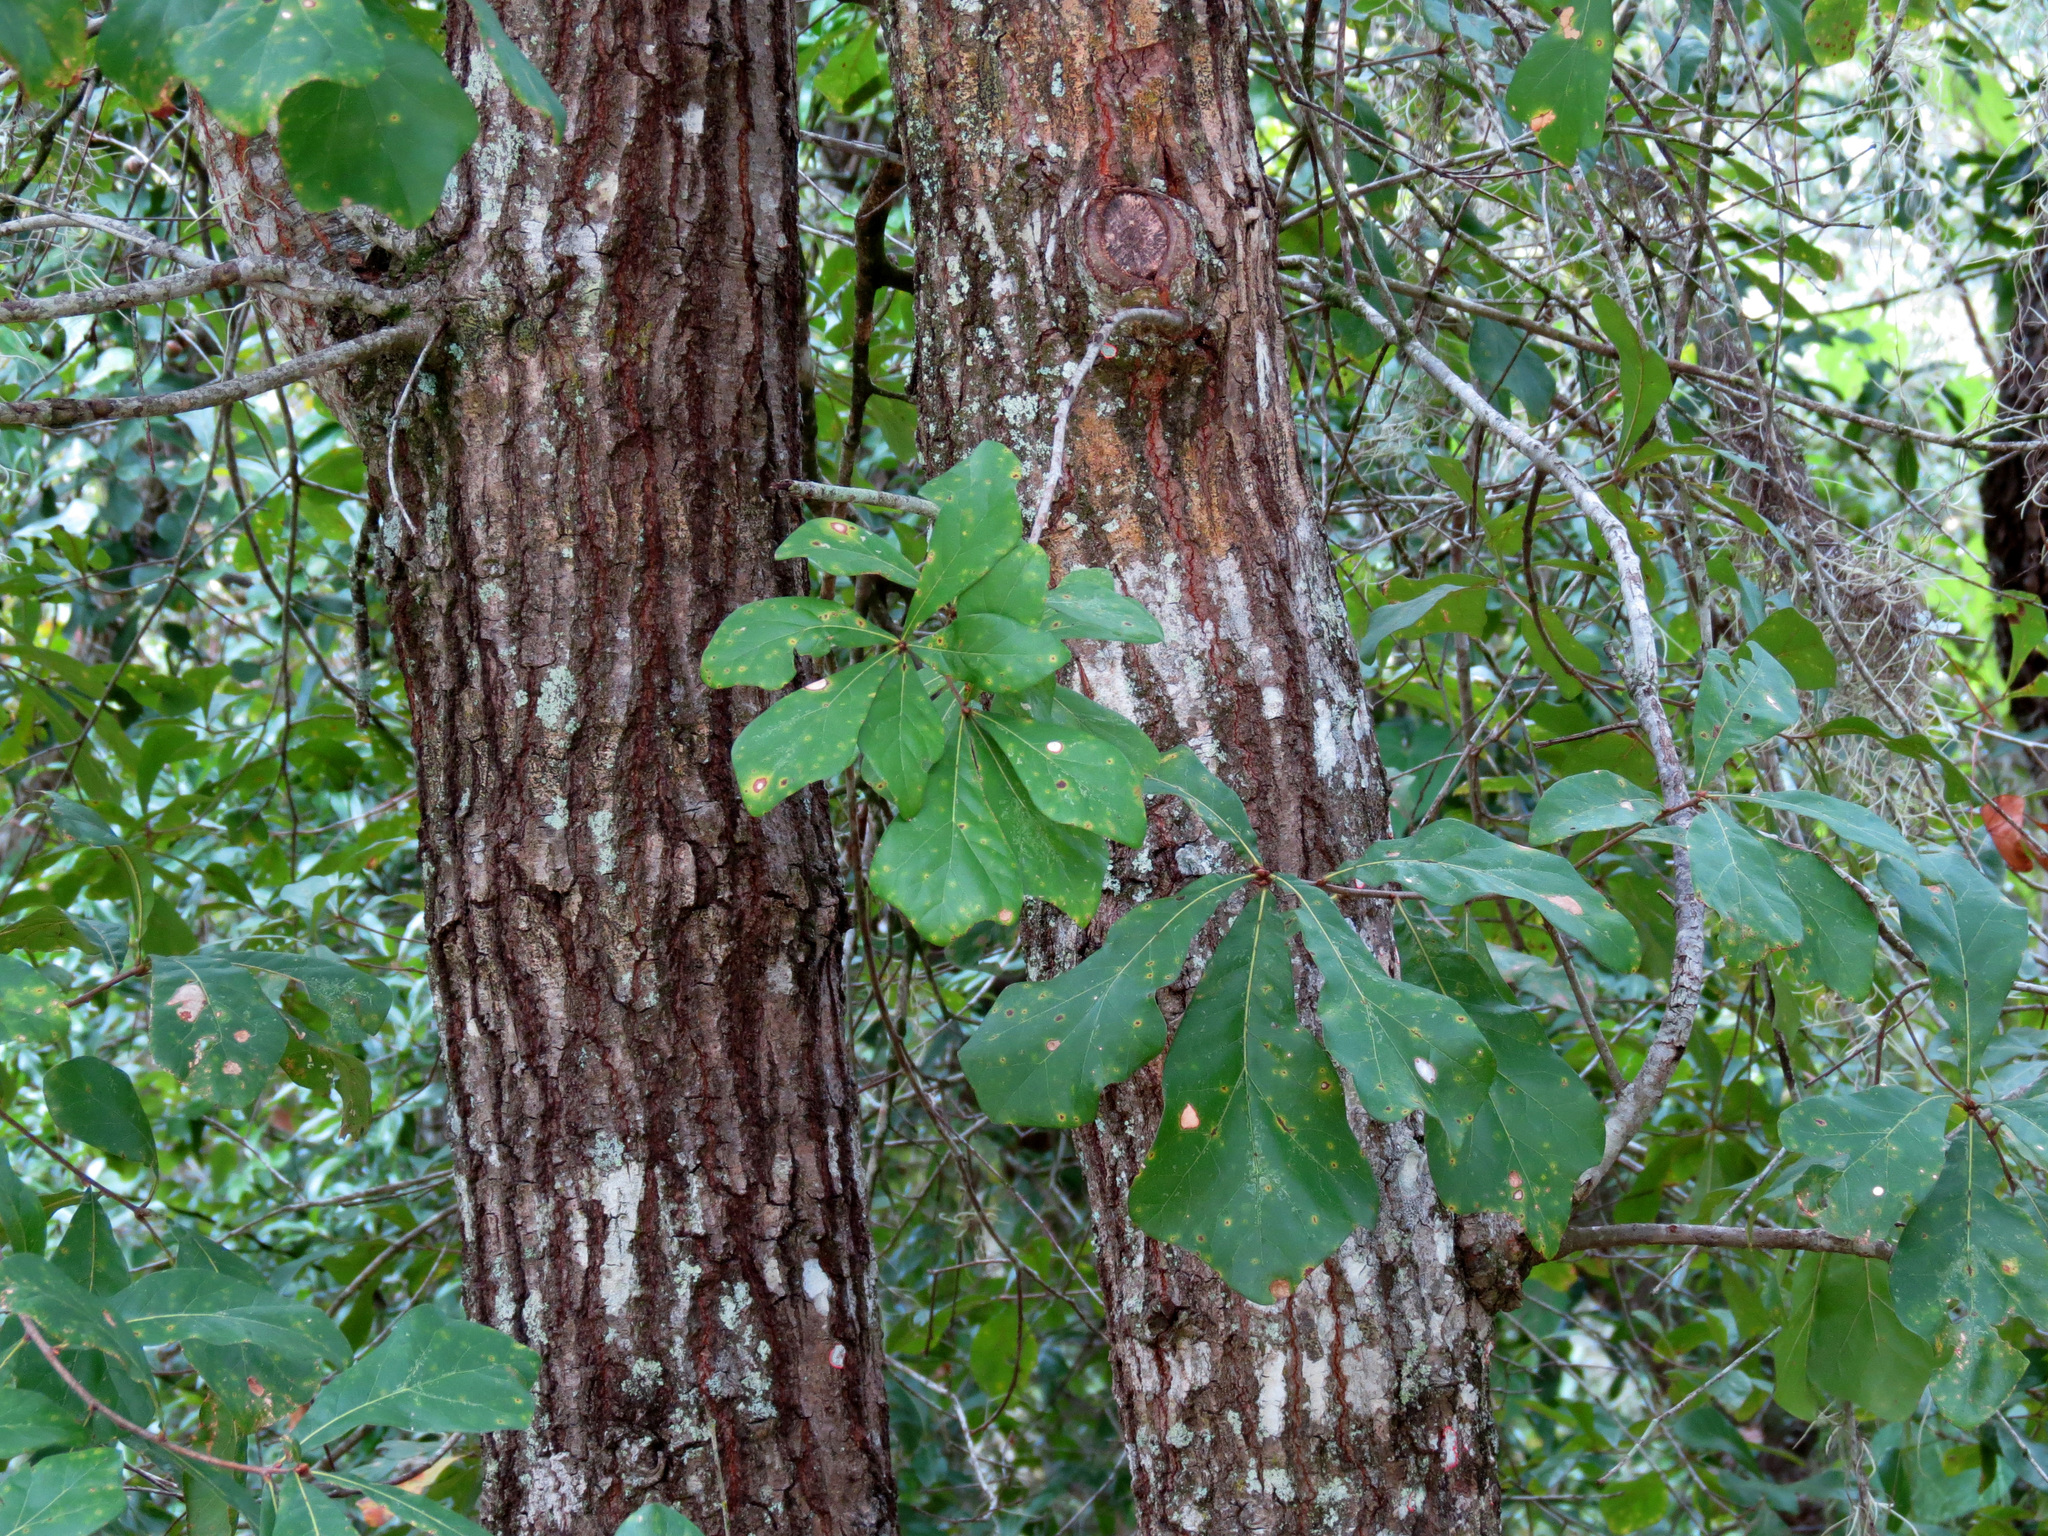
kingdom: Plantae
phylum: Tracheophyta
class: Magnoliopsida
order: Fagales
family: Fagaceae
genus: Quercus
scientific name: Quercus nigra
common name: Water oak
